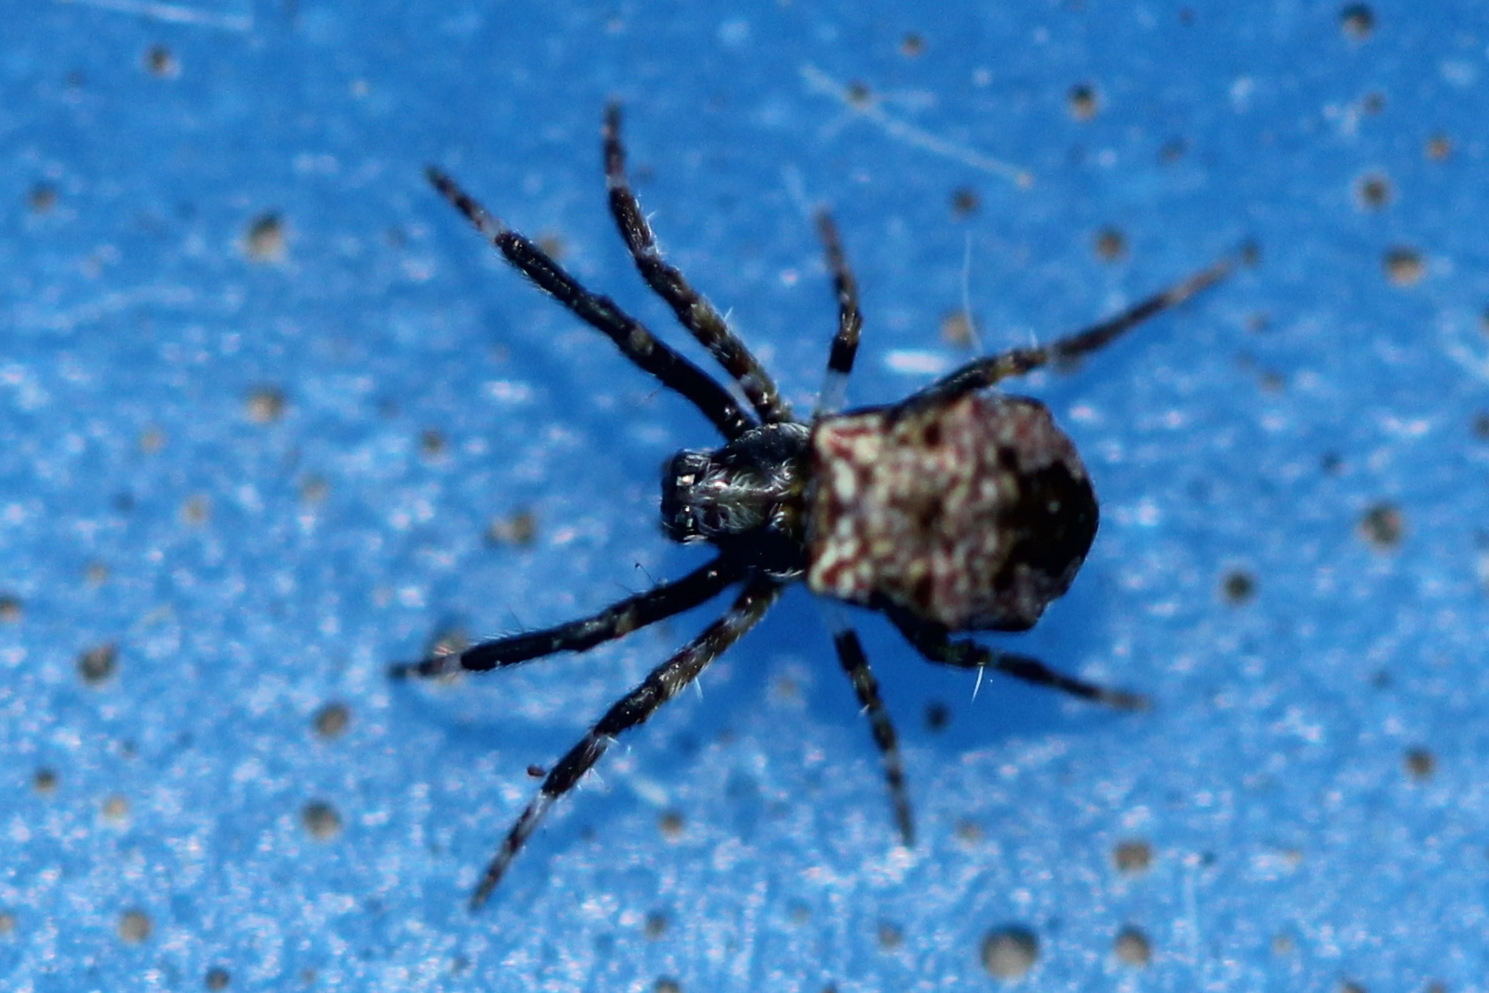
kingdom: Animalia
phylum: Arthropoda
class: Arachnida
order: Araneae
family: Araneidae
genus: Gea
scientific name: Gea heptagon
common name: Orb weavers
